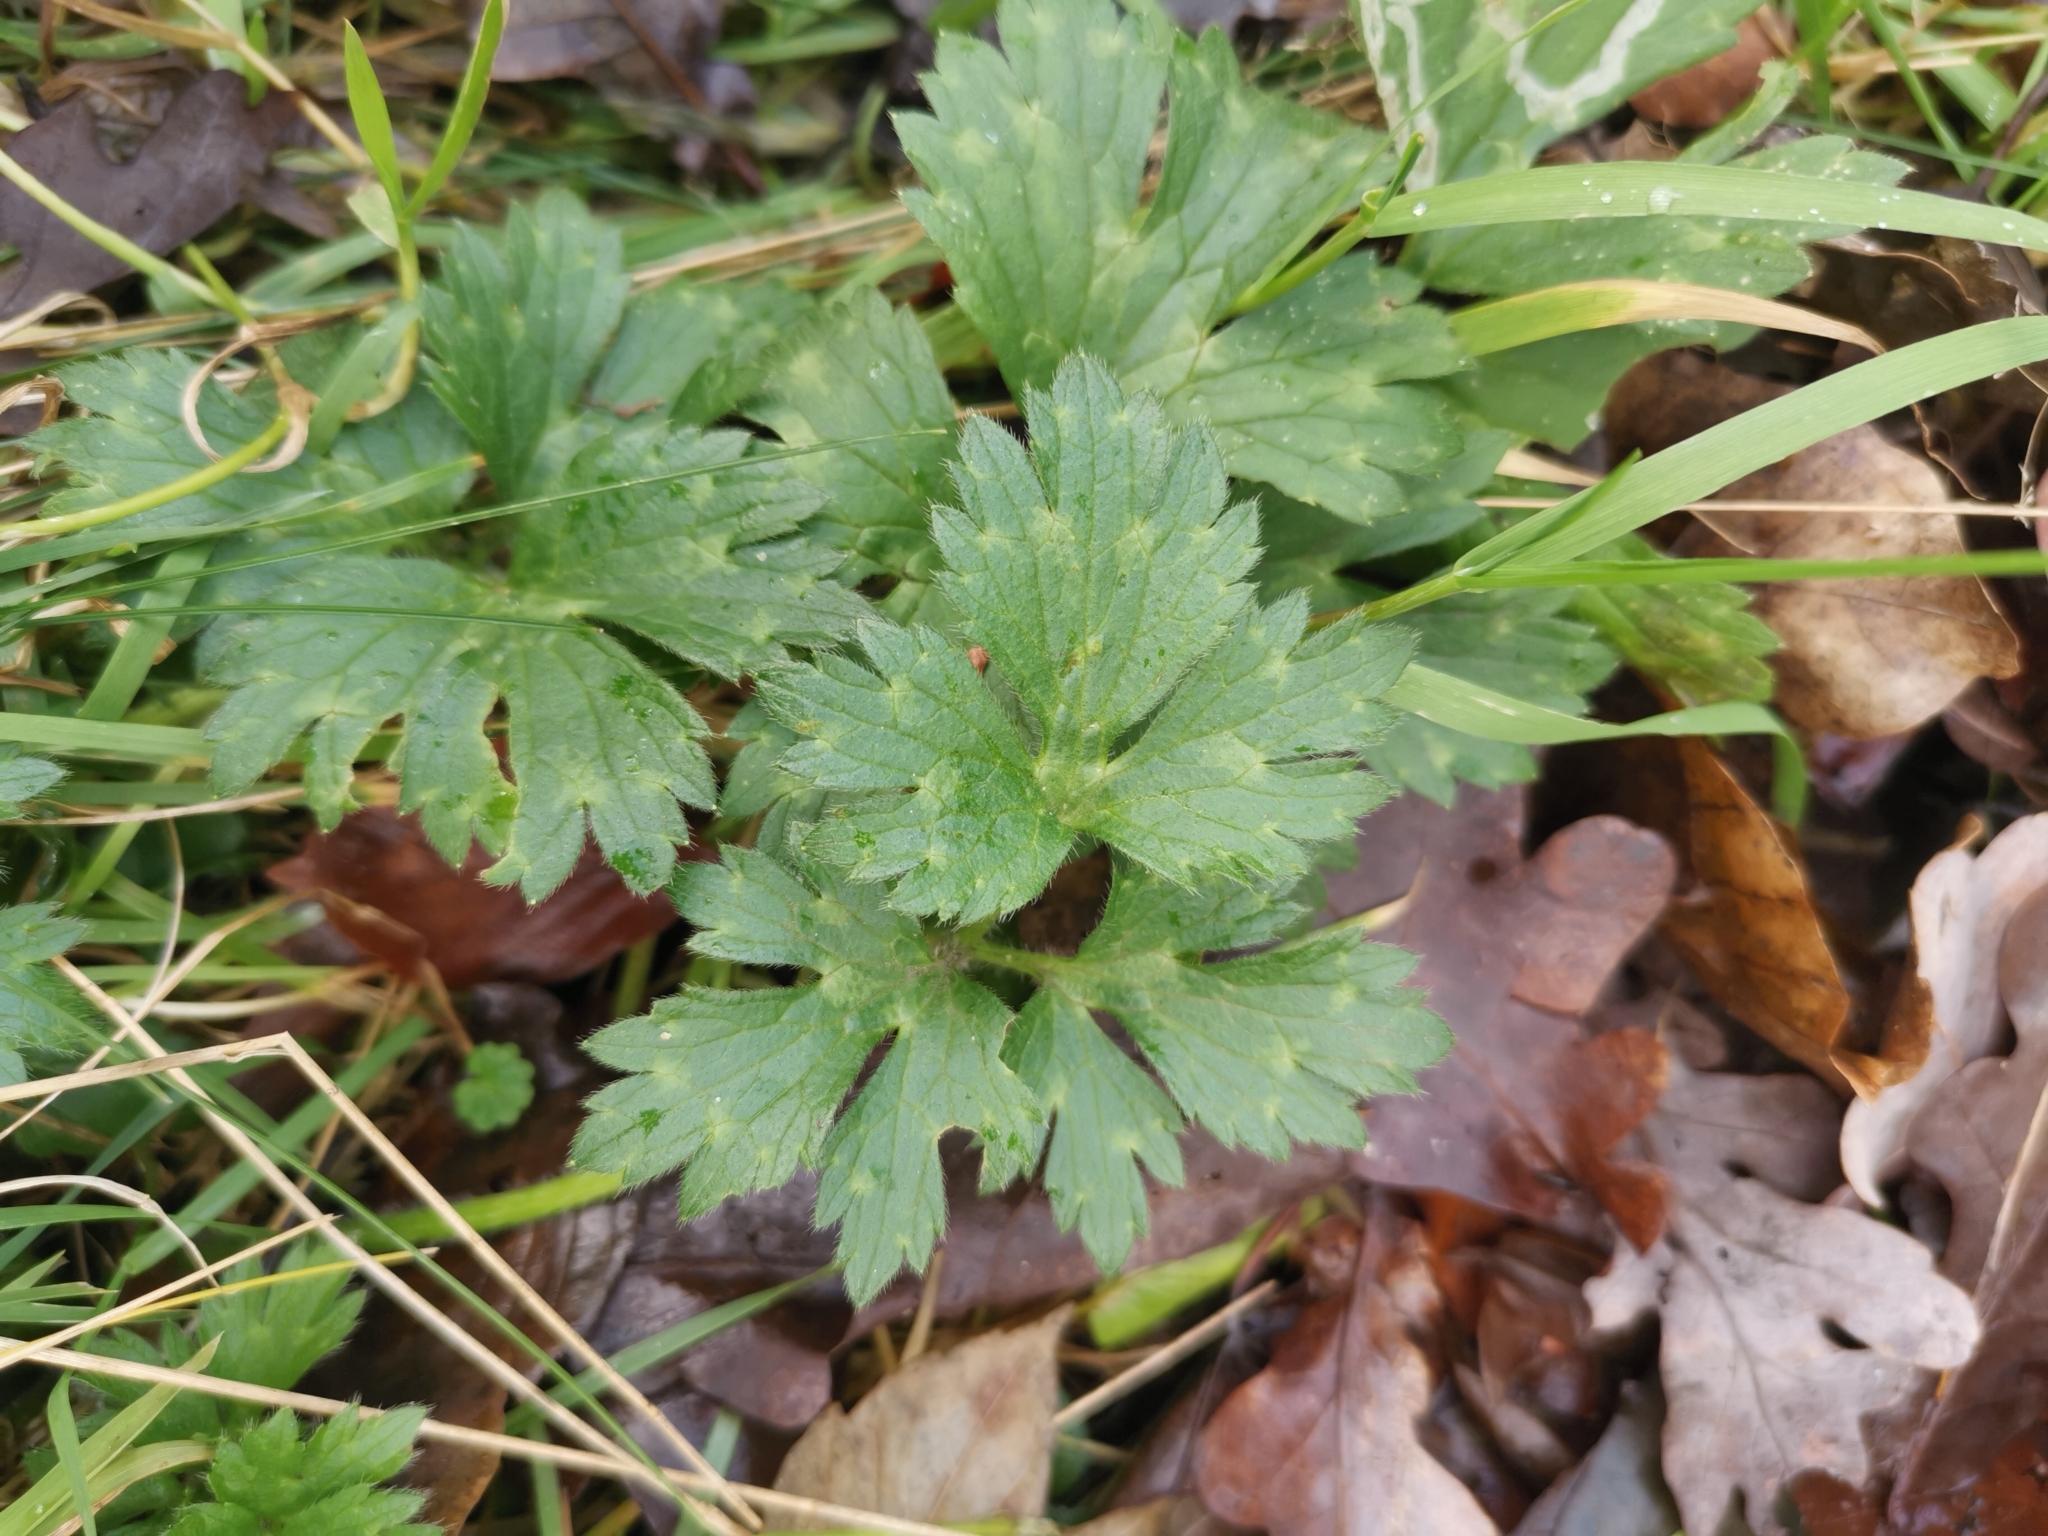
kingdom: Plantae
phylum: Tracheophyta
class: Magnoliopsida
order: Ranunculales
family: Ranunculaceae
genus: Ranunculus
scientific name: Ranunculus repens
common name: Creeping buttercup
